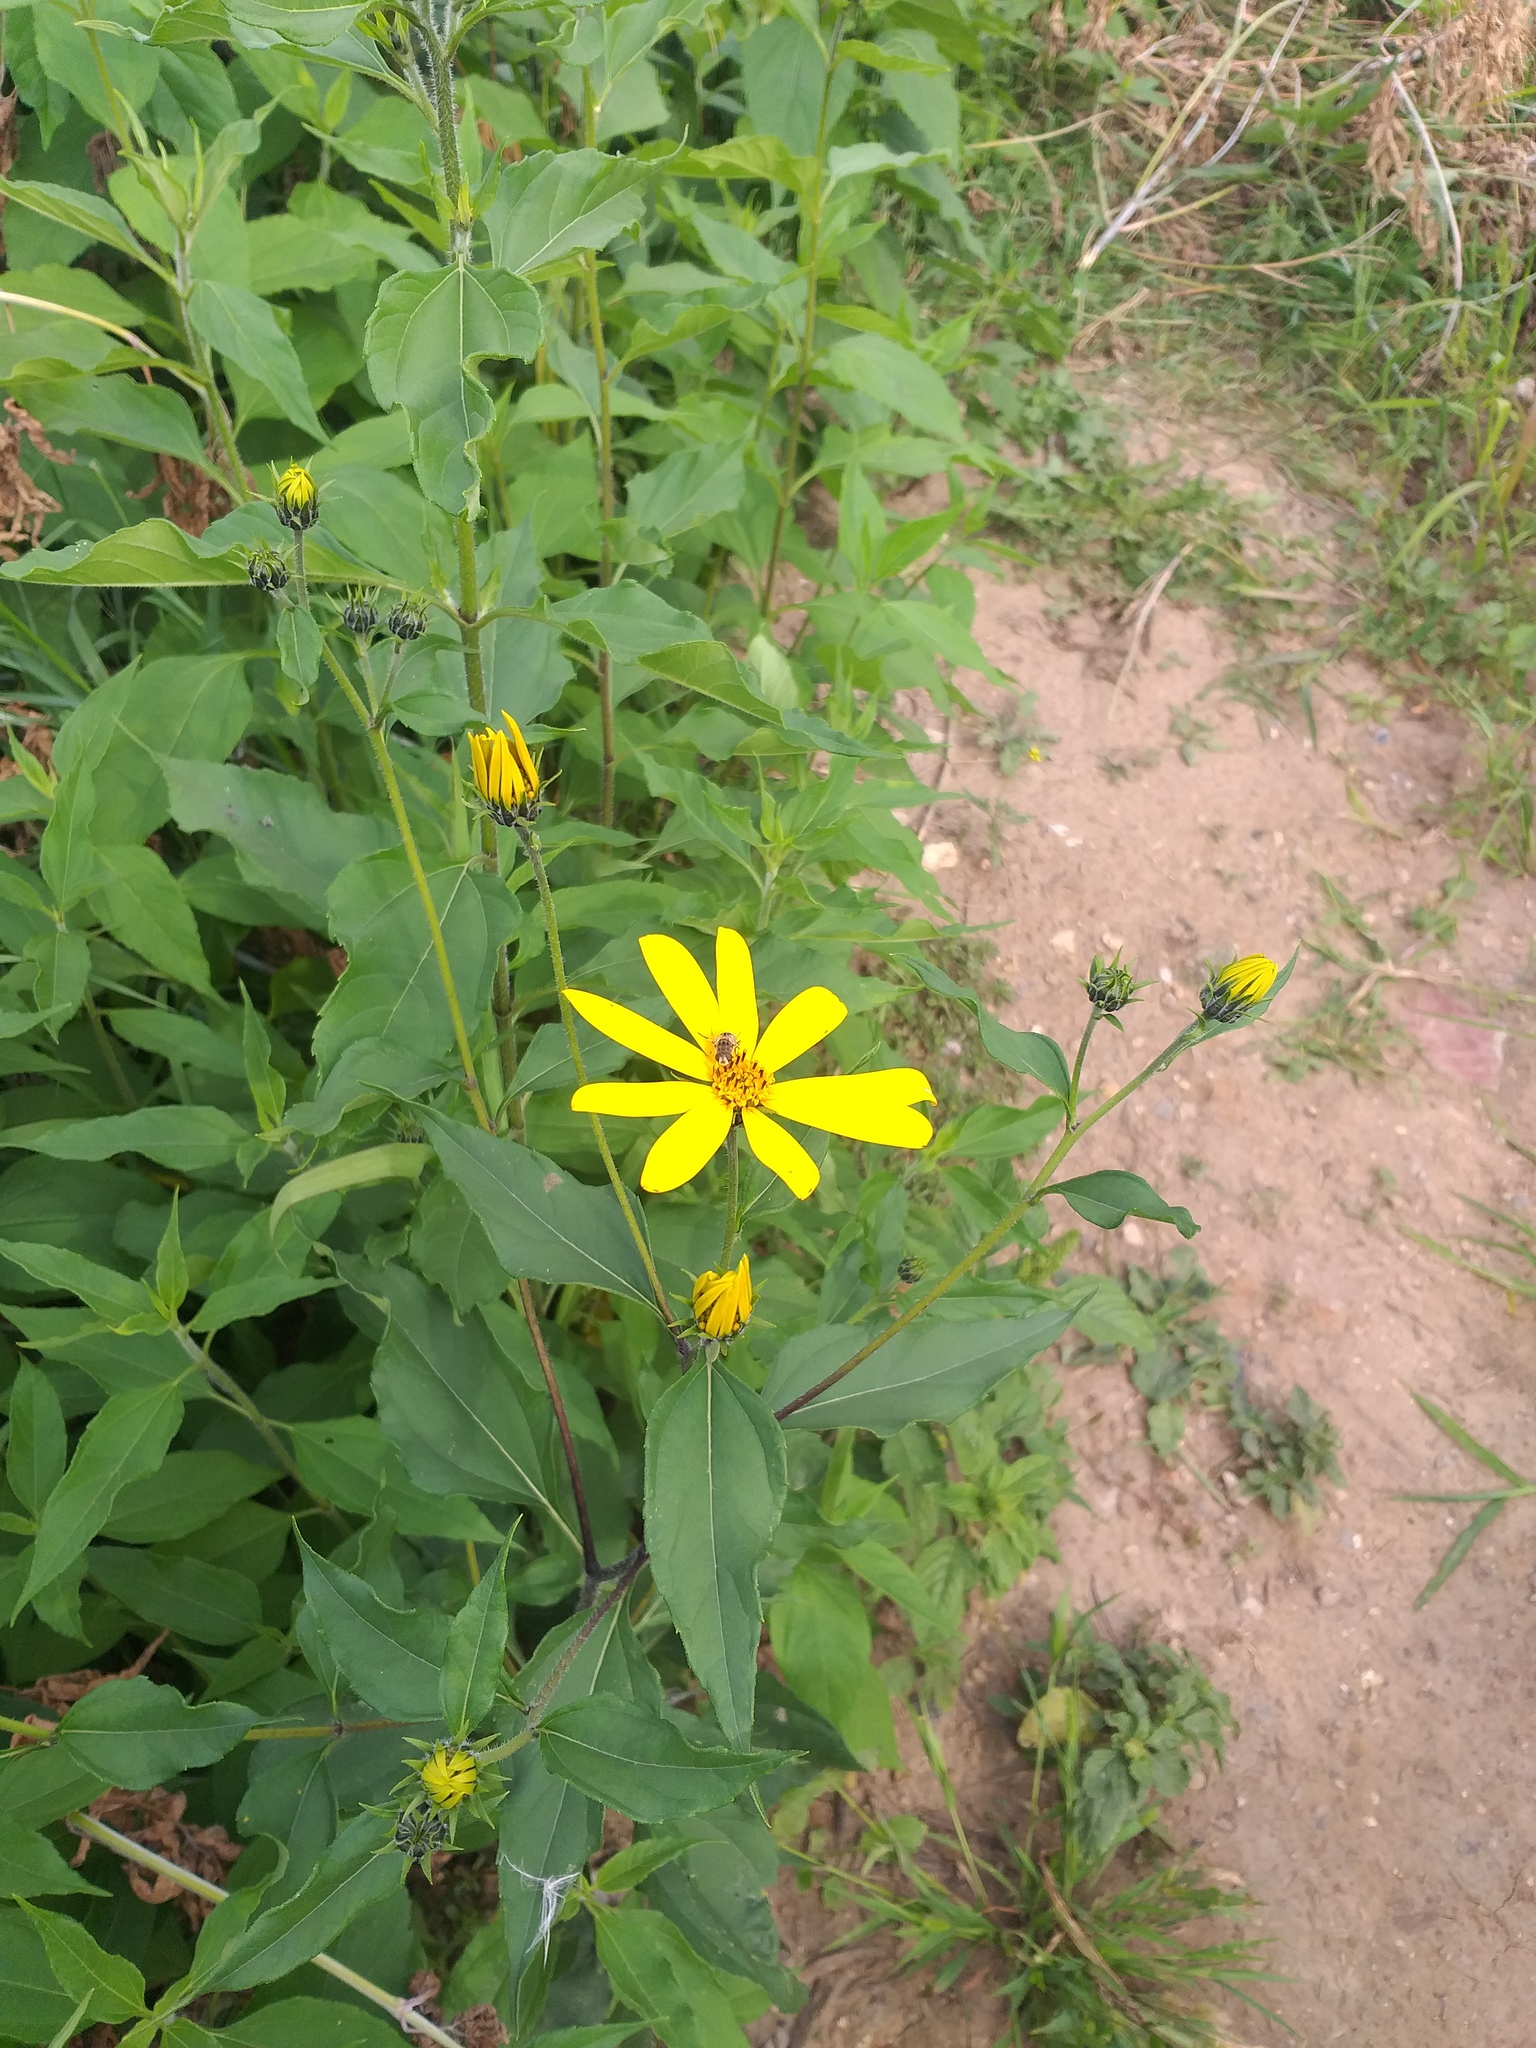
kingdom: Plantae
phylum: Tracheophyta
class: Magnoliopsida
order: Asterales
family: Asteraceae
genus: Helianthus
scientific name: Helianthus tuberosus
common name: Jerusalem artichoke
